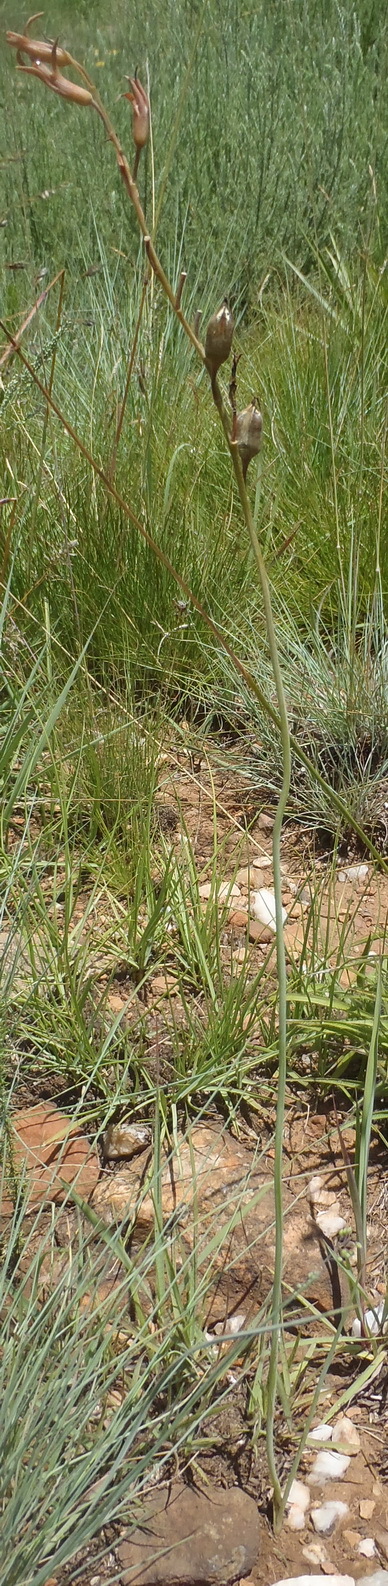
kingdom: Plantae
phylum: Tracheophyta
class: Liliopsida
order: Asparagales
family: Asparagaceae
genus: Dipcadi
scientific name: Dipcadi ciliare
